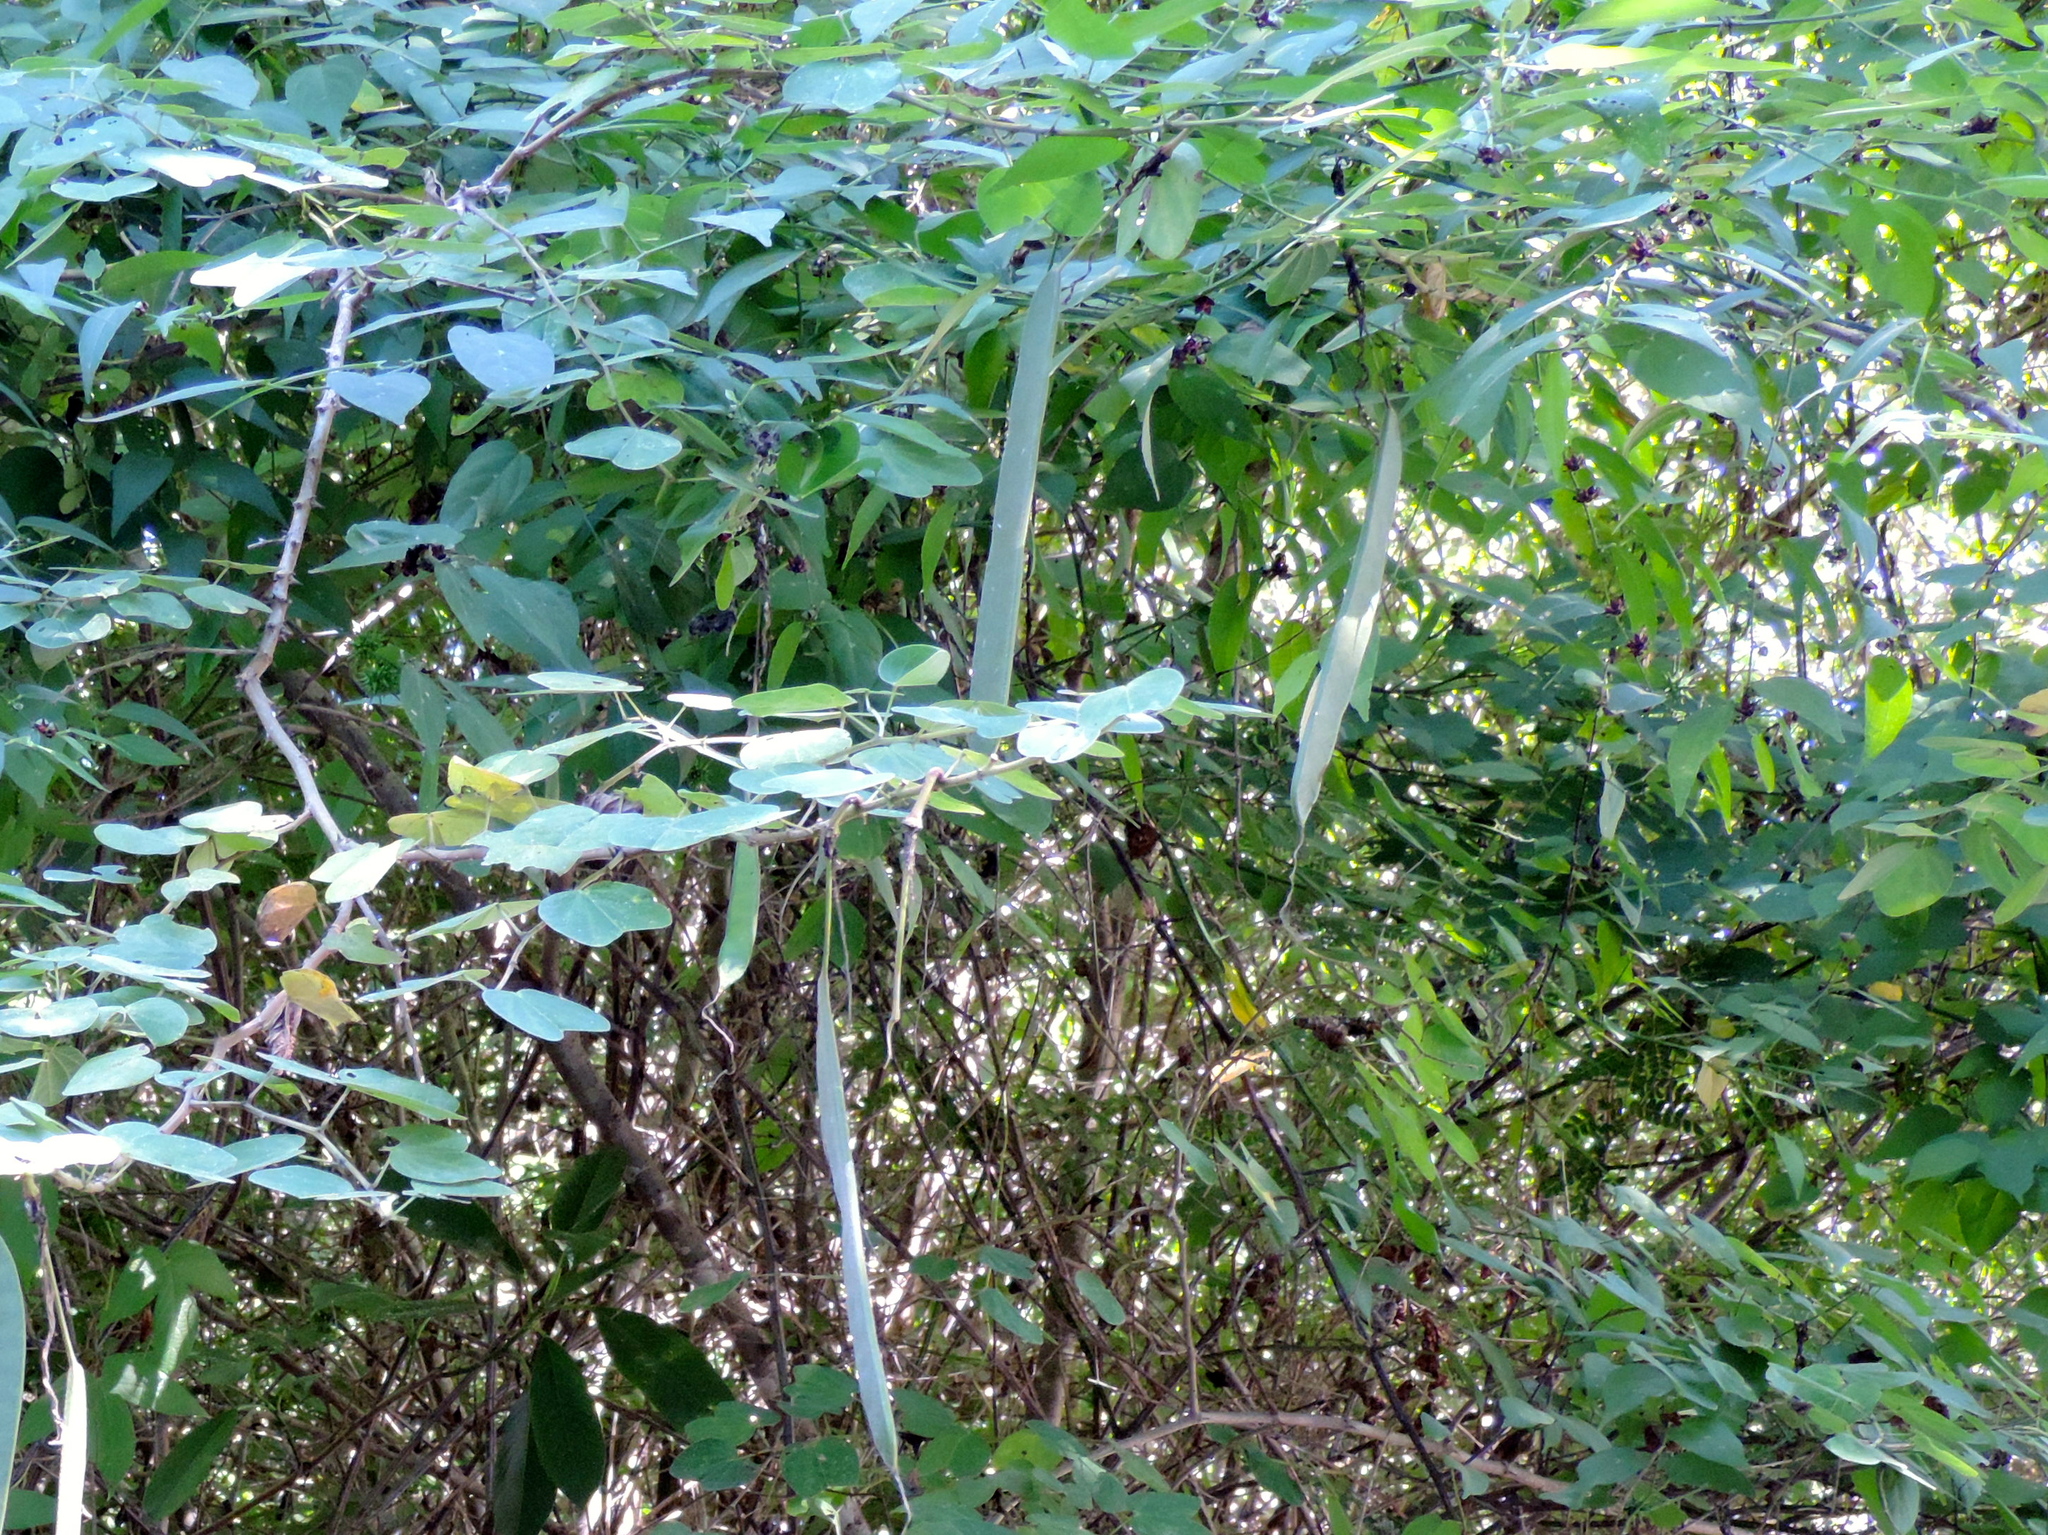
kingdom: Plantae
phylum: Tracheophyta
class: Magnoliopsida
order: Fabales
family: Fabaceae
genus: Bauhinia
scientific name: Bauhinia pauletia
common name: Railway-fence bauhinia
